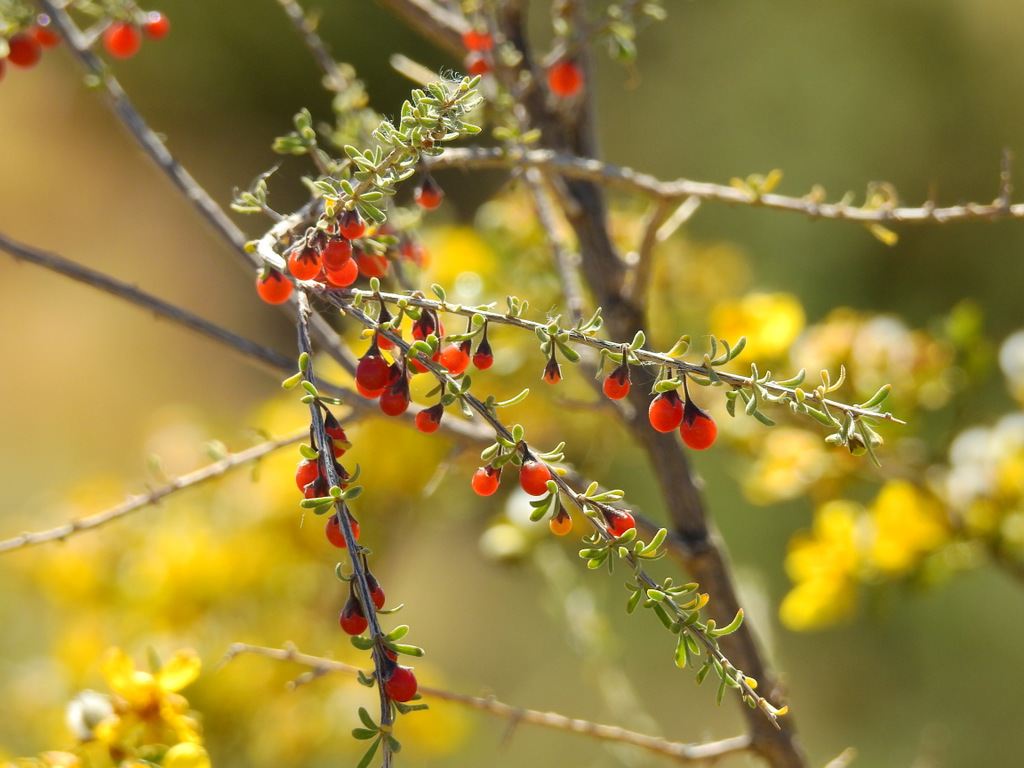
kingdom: Plantae
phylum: Tracheophyta
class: Magnoliopsida
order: Solanales
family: Solanaceae
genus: Lycium
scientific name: Lycium chilense
